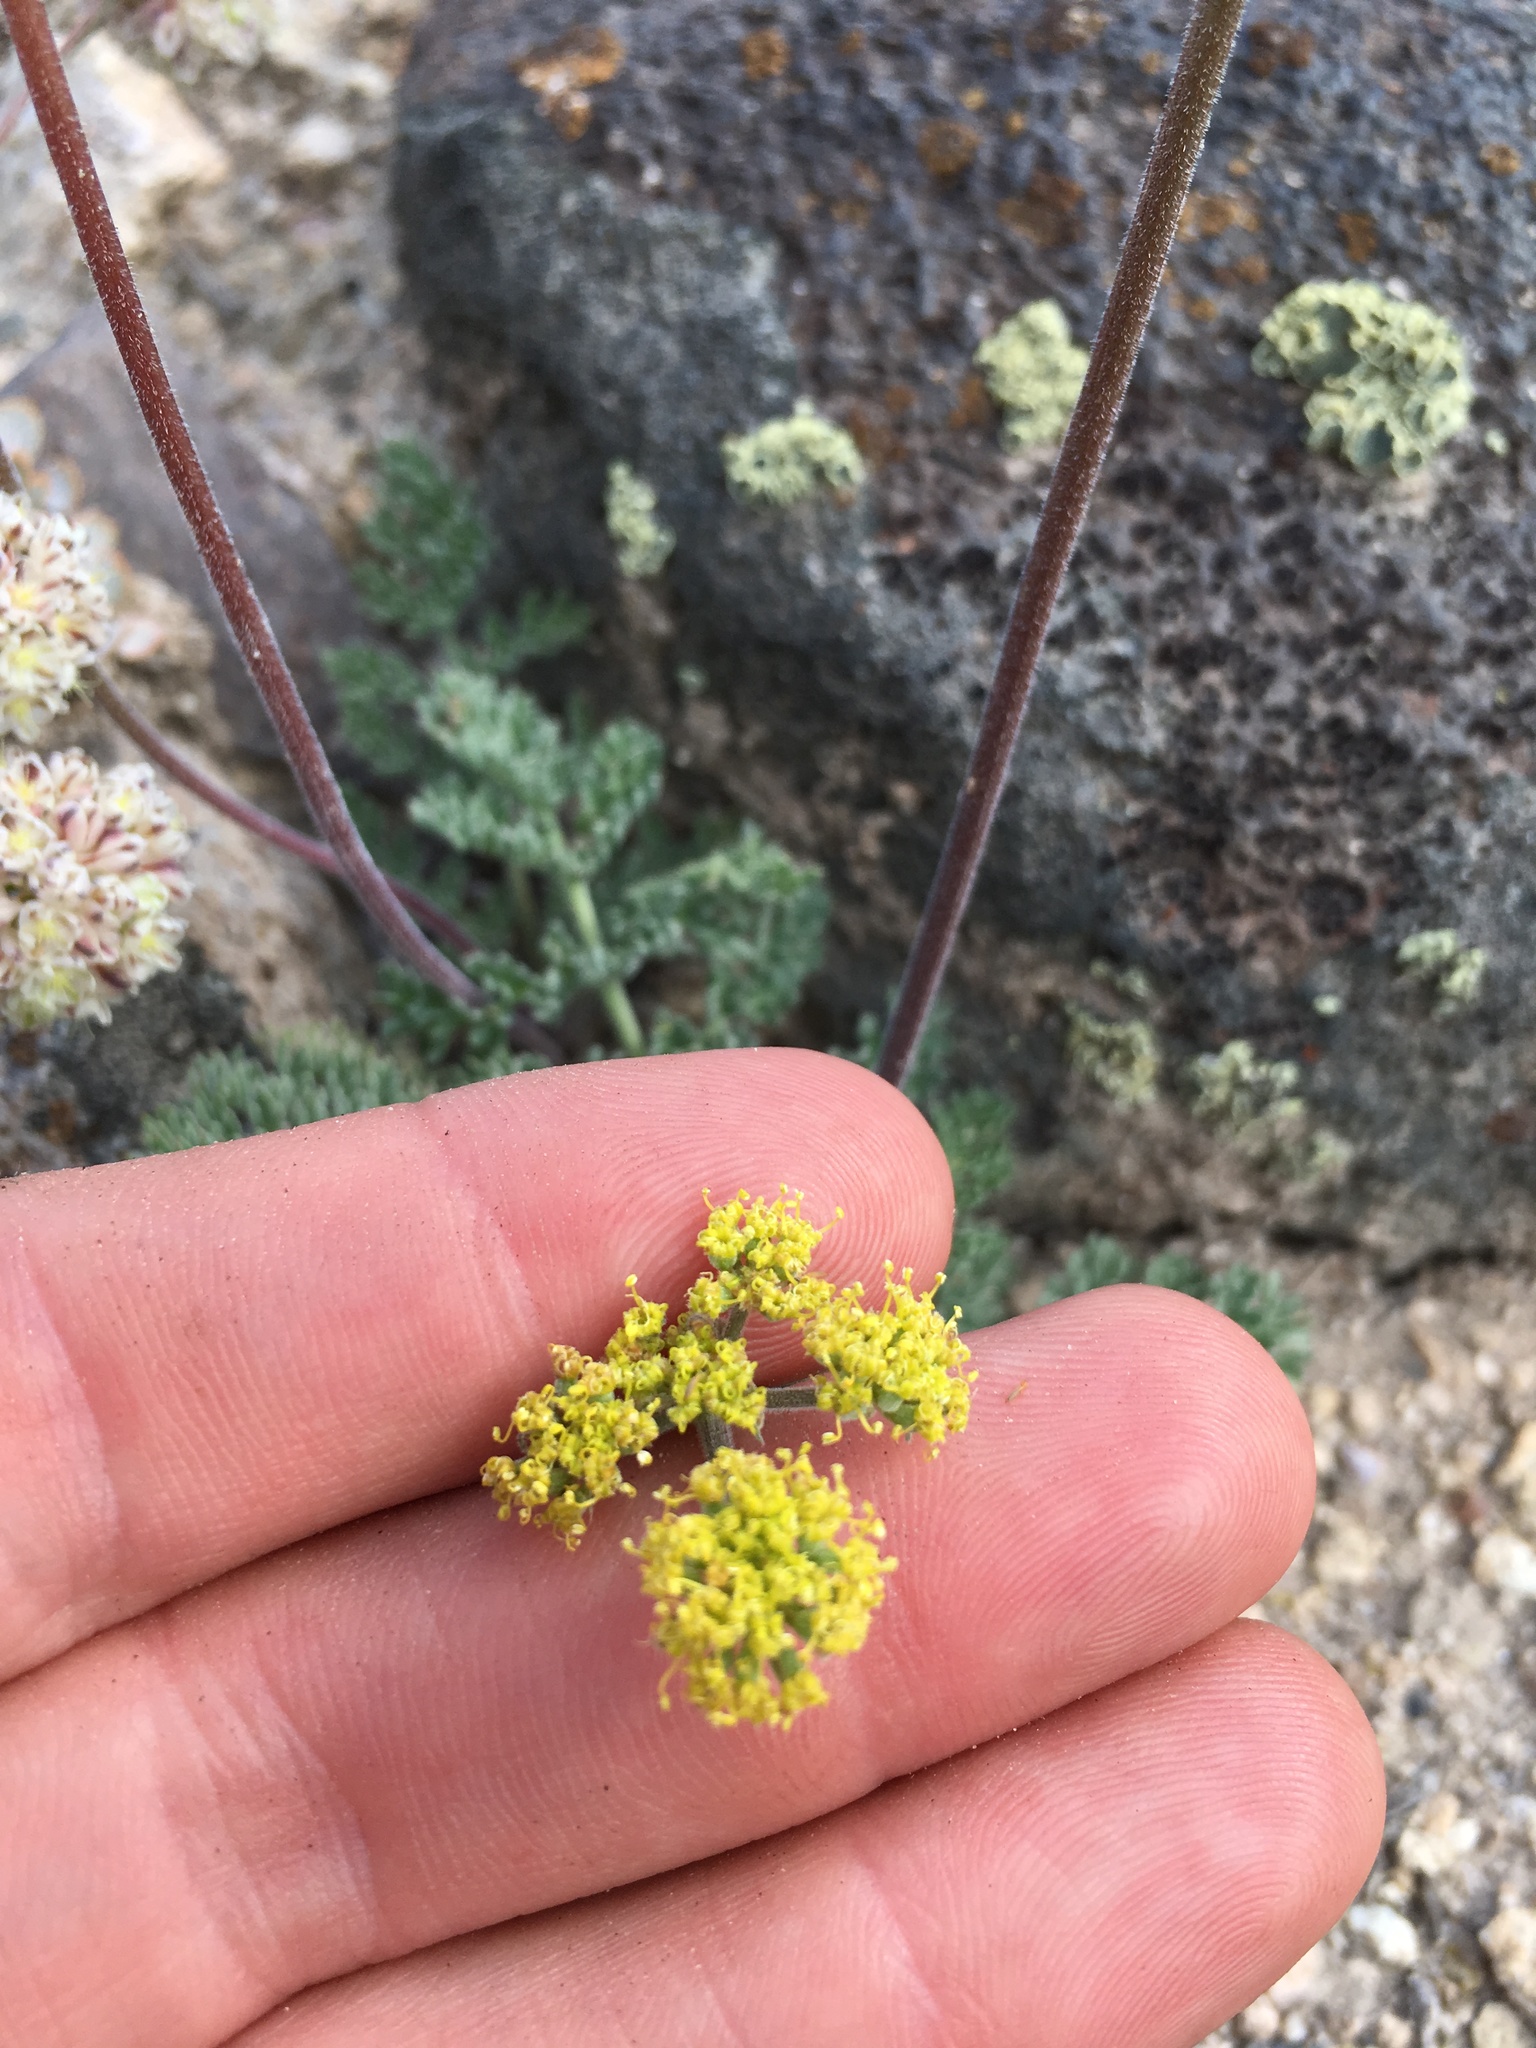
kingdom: Plantae
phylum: Tracheophyta
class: Magnoliopsida
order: Apiales
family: Apiaceae
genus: Lomatium
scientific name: Lomatium foeniculaceum
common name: Desert-parsley
